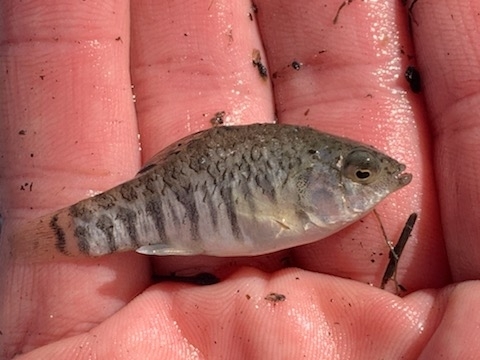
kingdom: Animalia
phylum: Chordata
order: Cyprinodontiformes
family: Cyprinodontidae
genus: Cyprinodon
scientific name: Cyprinodon variegatus
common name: Sheepshead minnow
